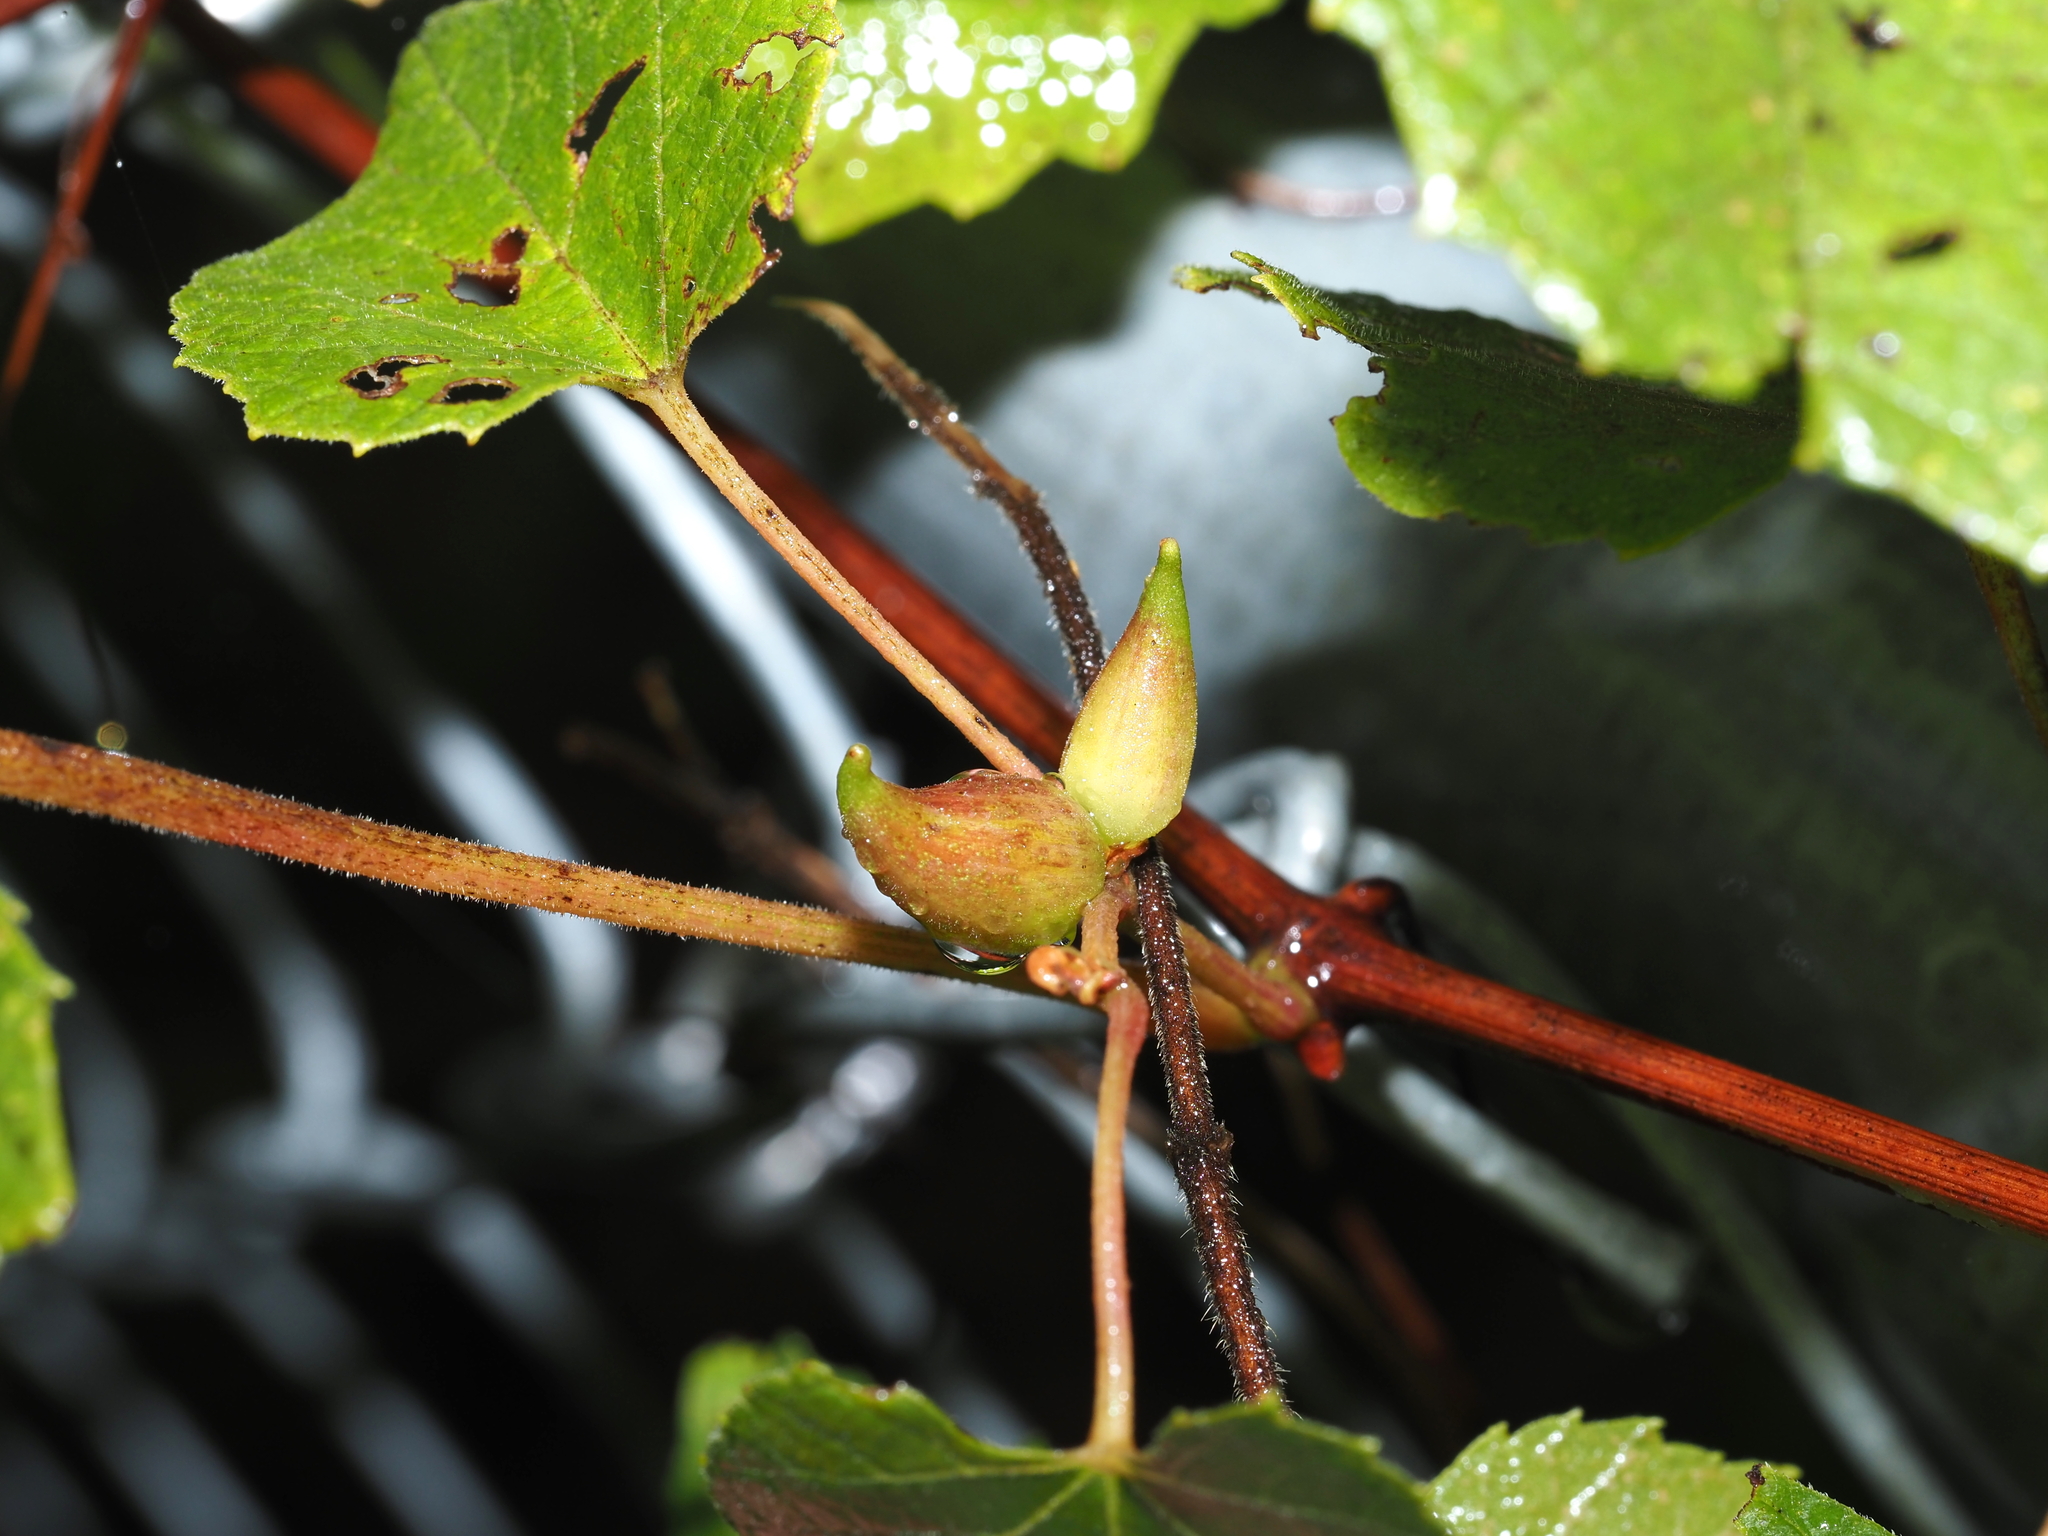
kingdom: Animalia
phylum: Arthropoda
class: Insecta
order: Diptera
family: Cecidomyiidae
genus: Ampelomyia
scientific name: Ampelomyia vitiscoryloides
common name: Grape filbert gall
